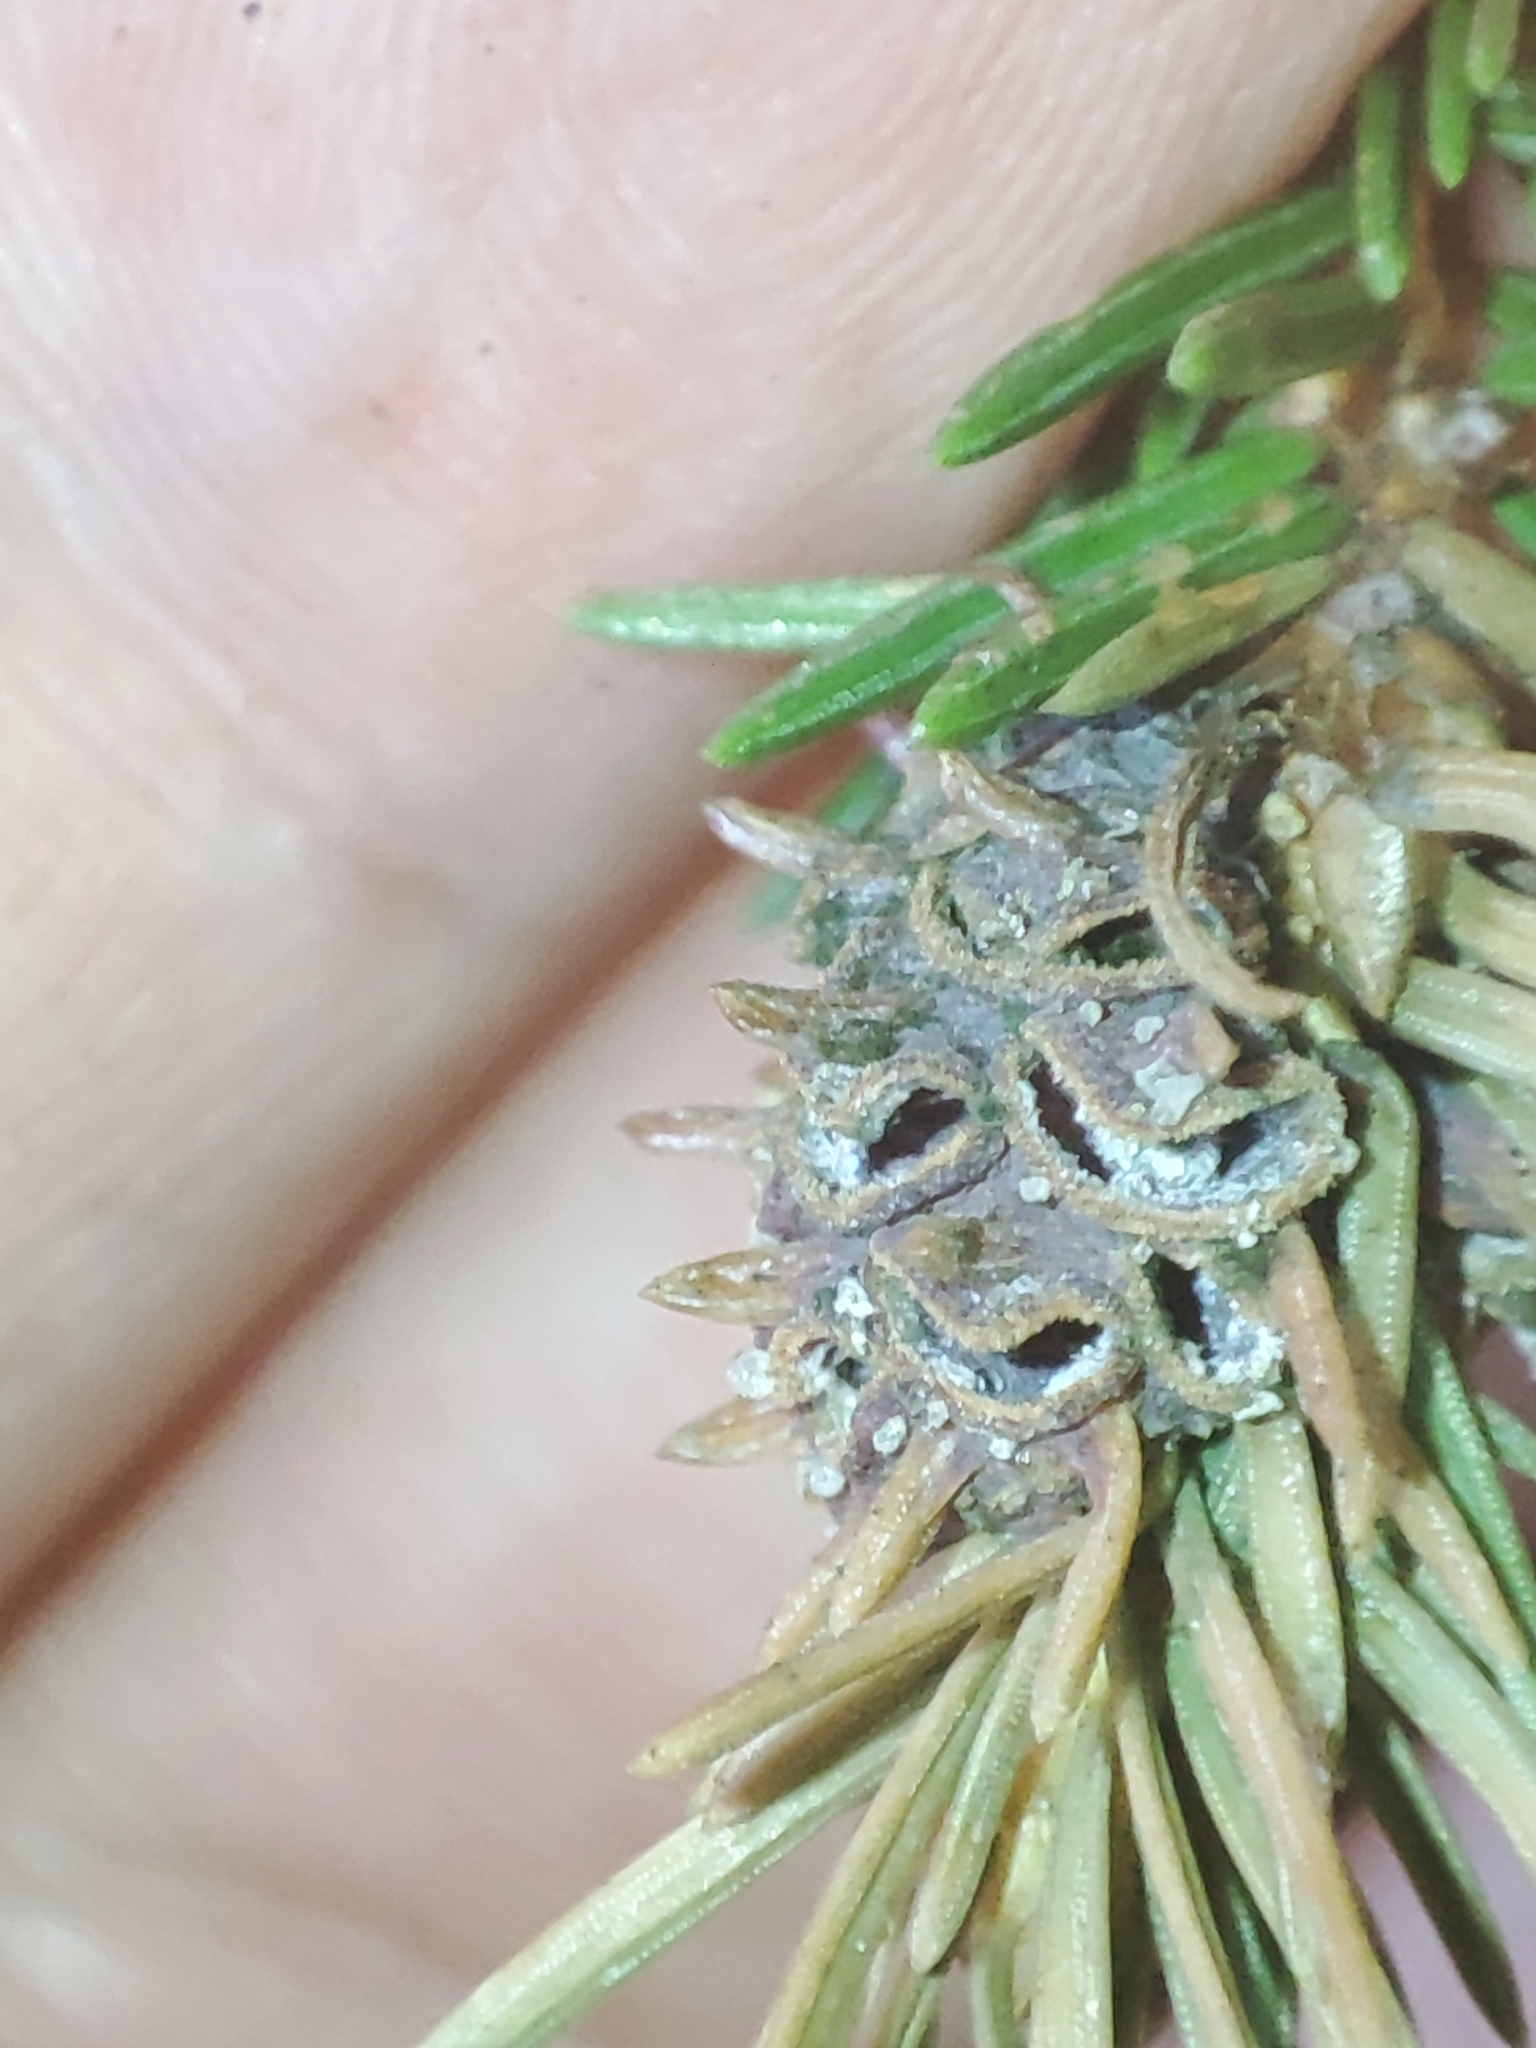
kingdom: Animalia
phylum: Arthropoda
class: Insecta
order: Hemiptera
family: Adelgidae
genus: Adelges
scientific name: Adelges abietis
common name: Eastern spruce gall adelgid
